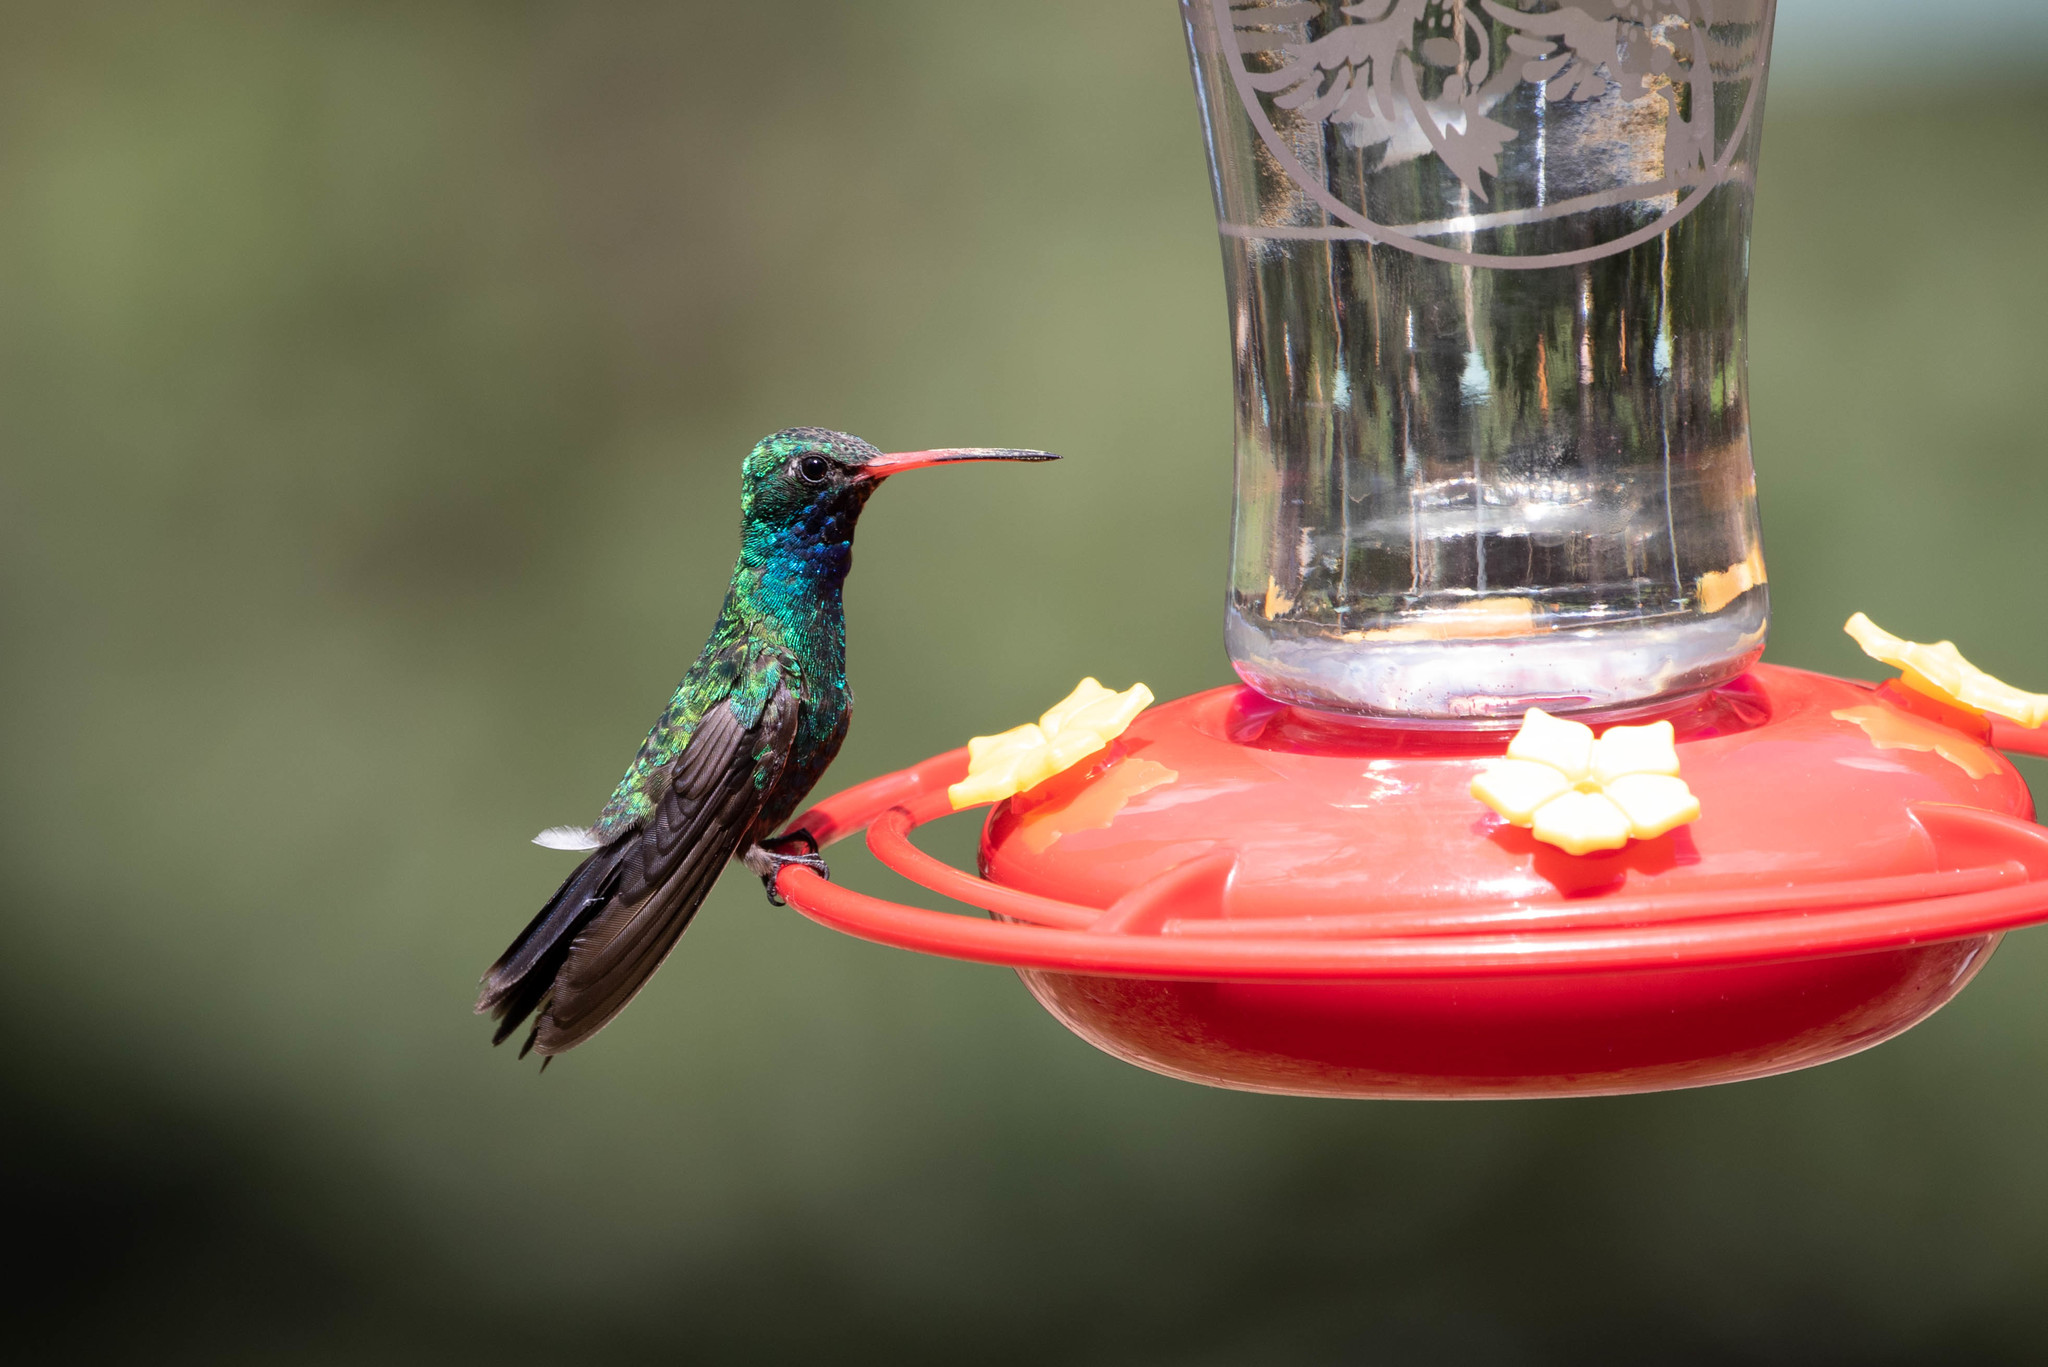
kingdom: Animalia
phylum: Chordata
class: Aves
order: Apodiformes
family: Trochilidae
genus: Cynanthus
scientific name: Cynanthus latirostris
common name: Broad-billed hummingbird
